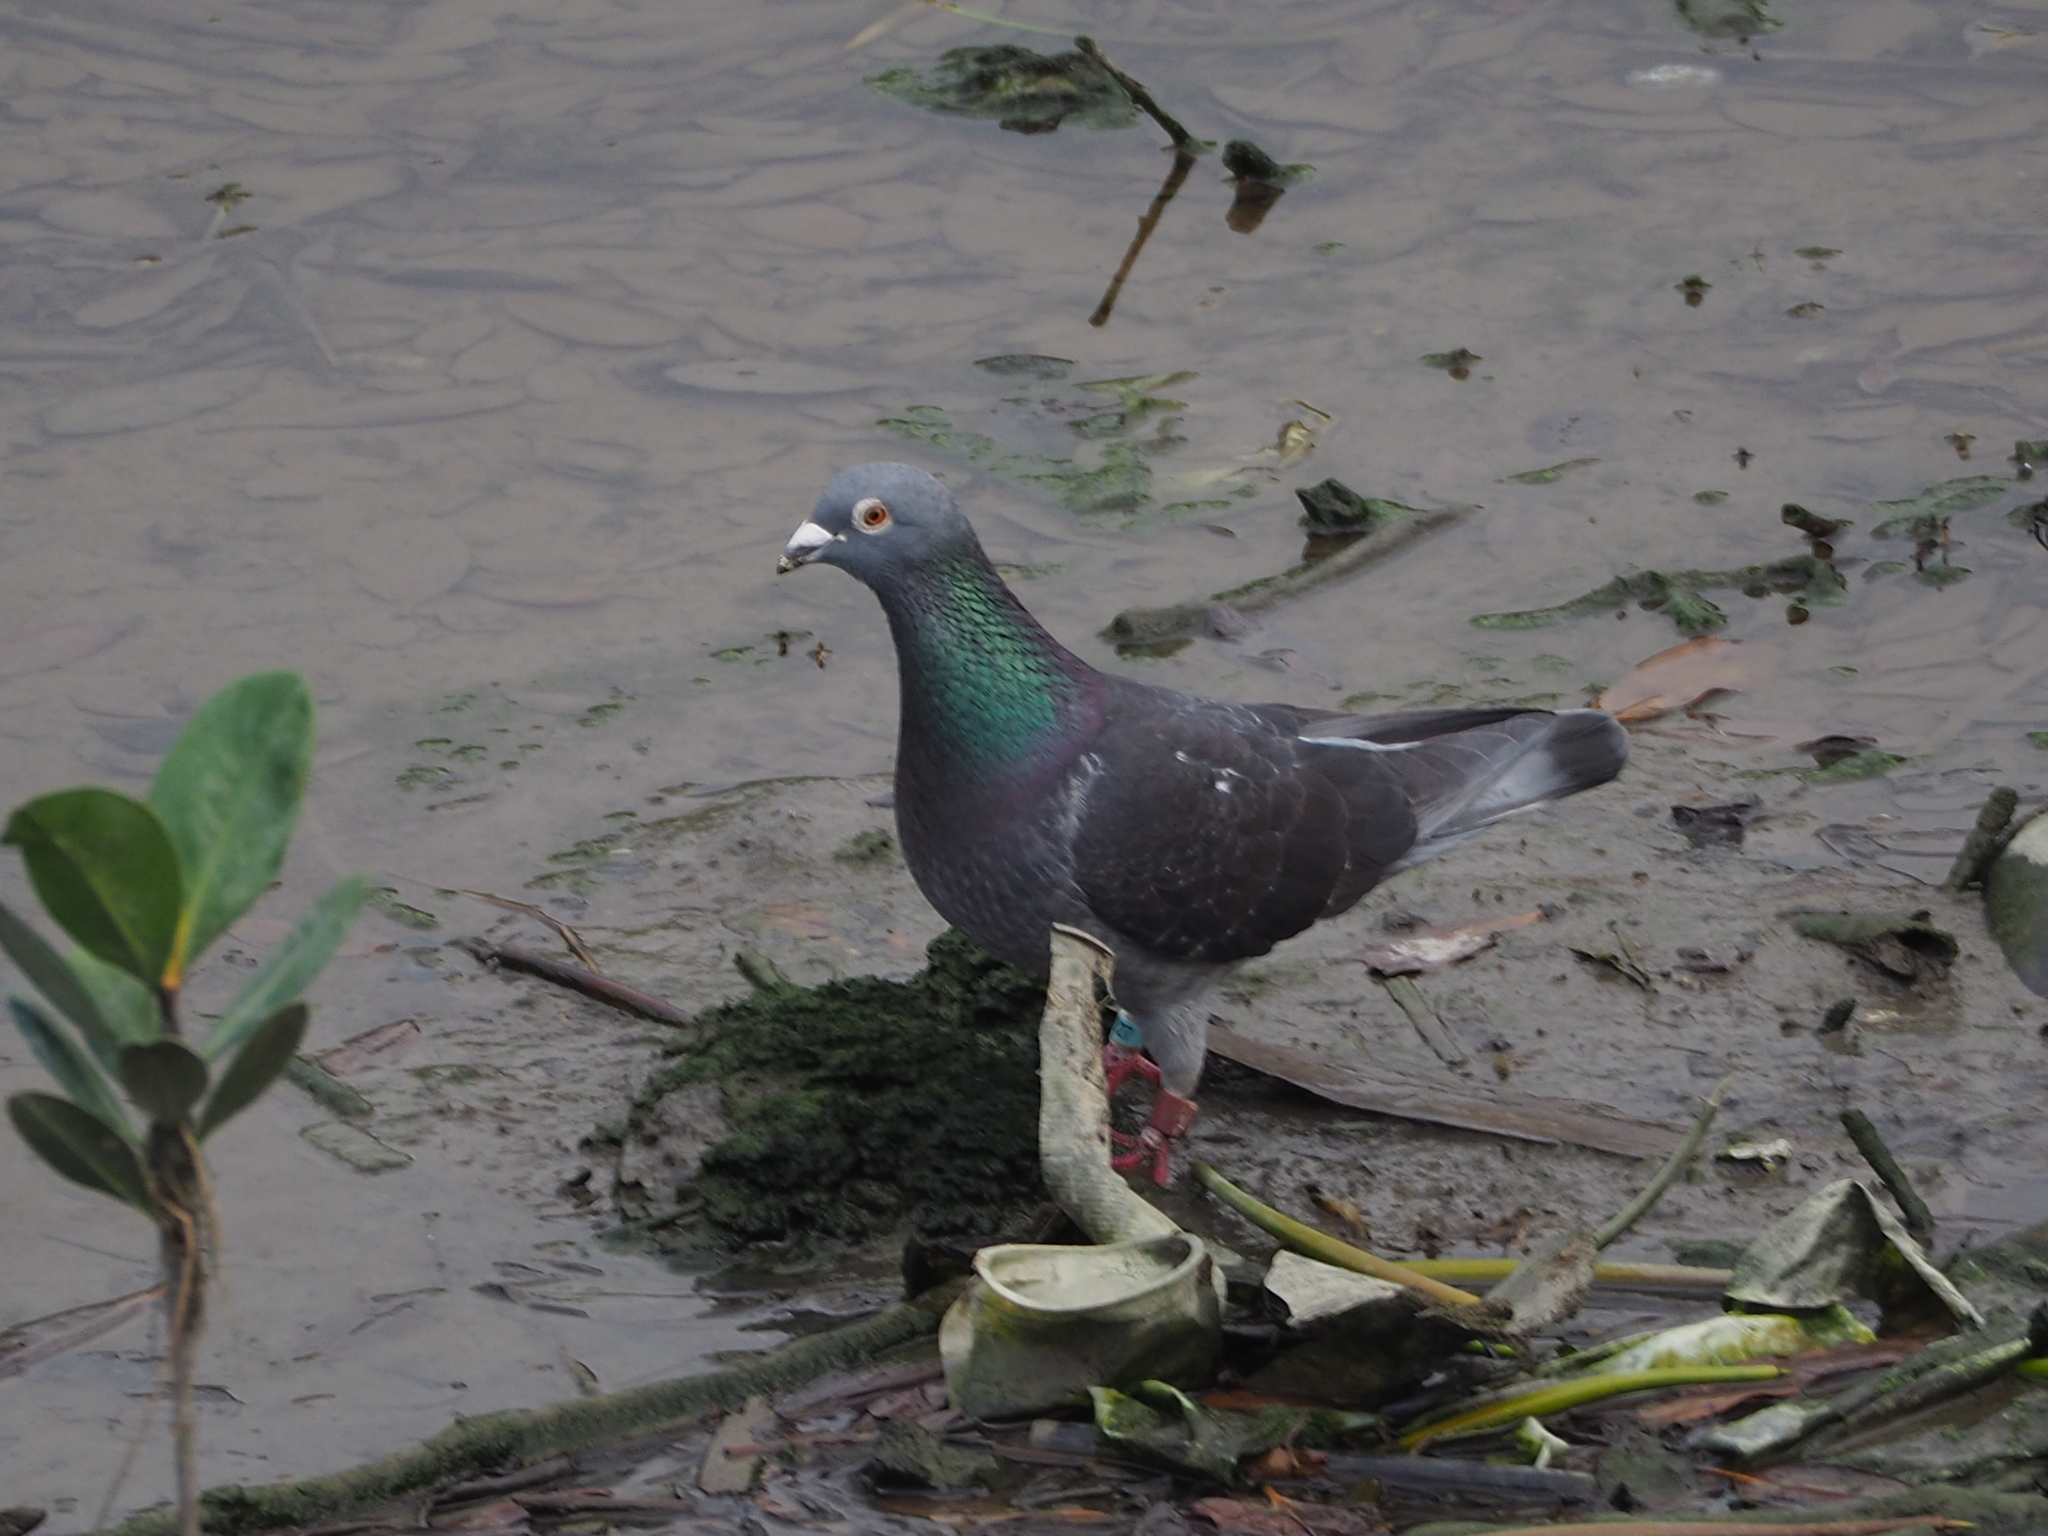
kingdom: Animalia
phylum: Chordata
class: Aves
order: Columbiformes
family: Columbidae
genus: Columba
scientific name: Columba livia
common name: Rock pigeon
